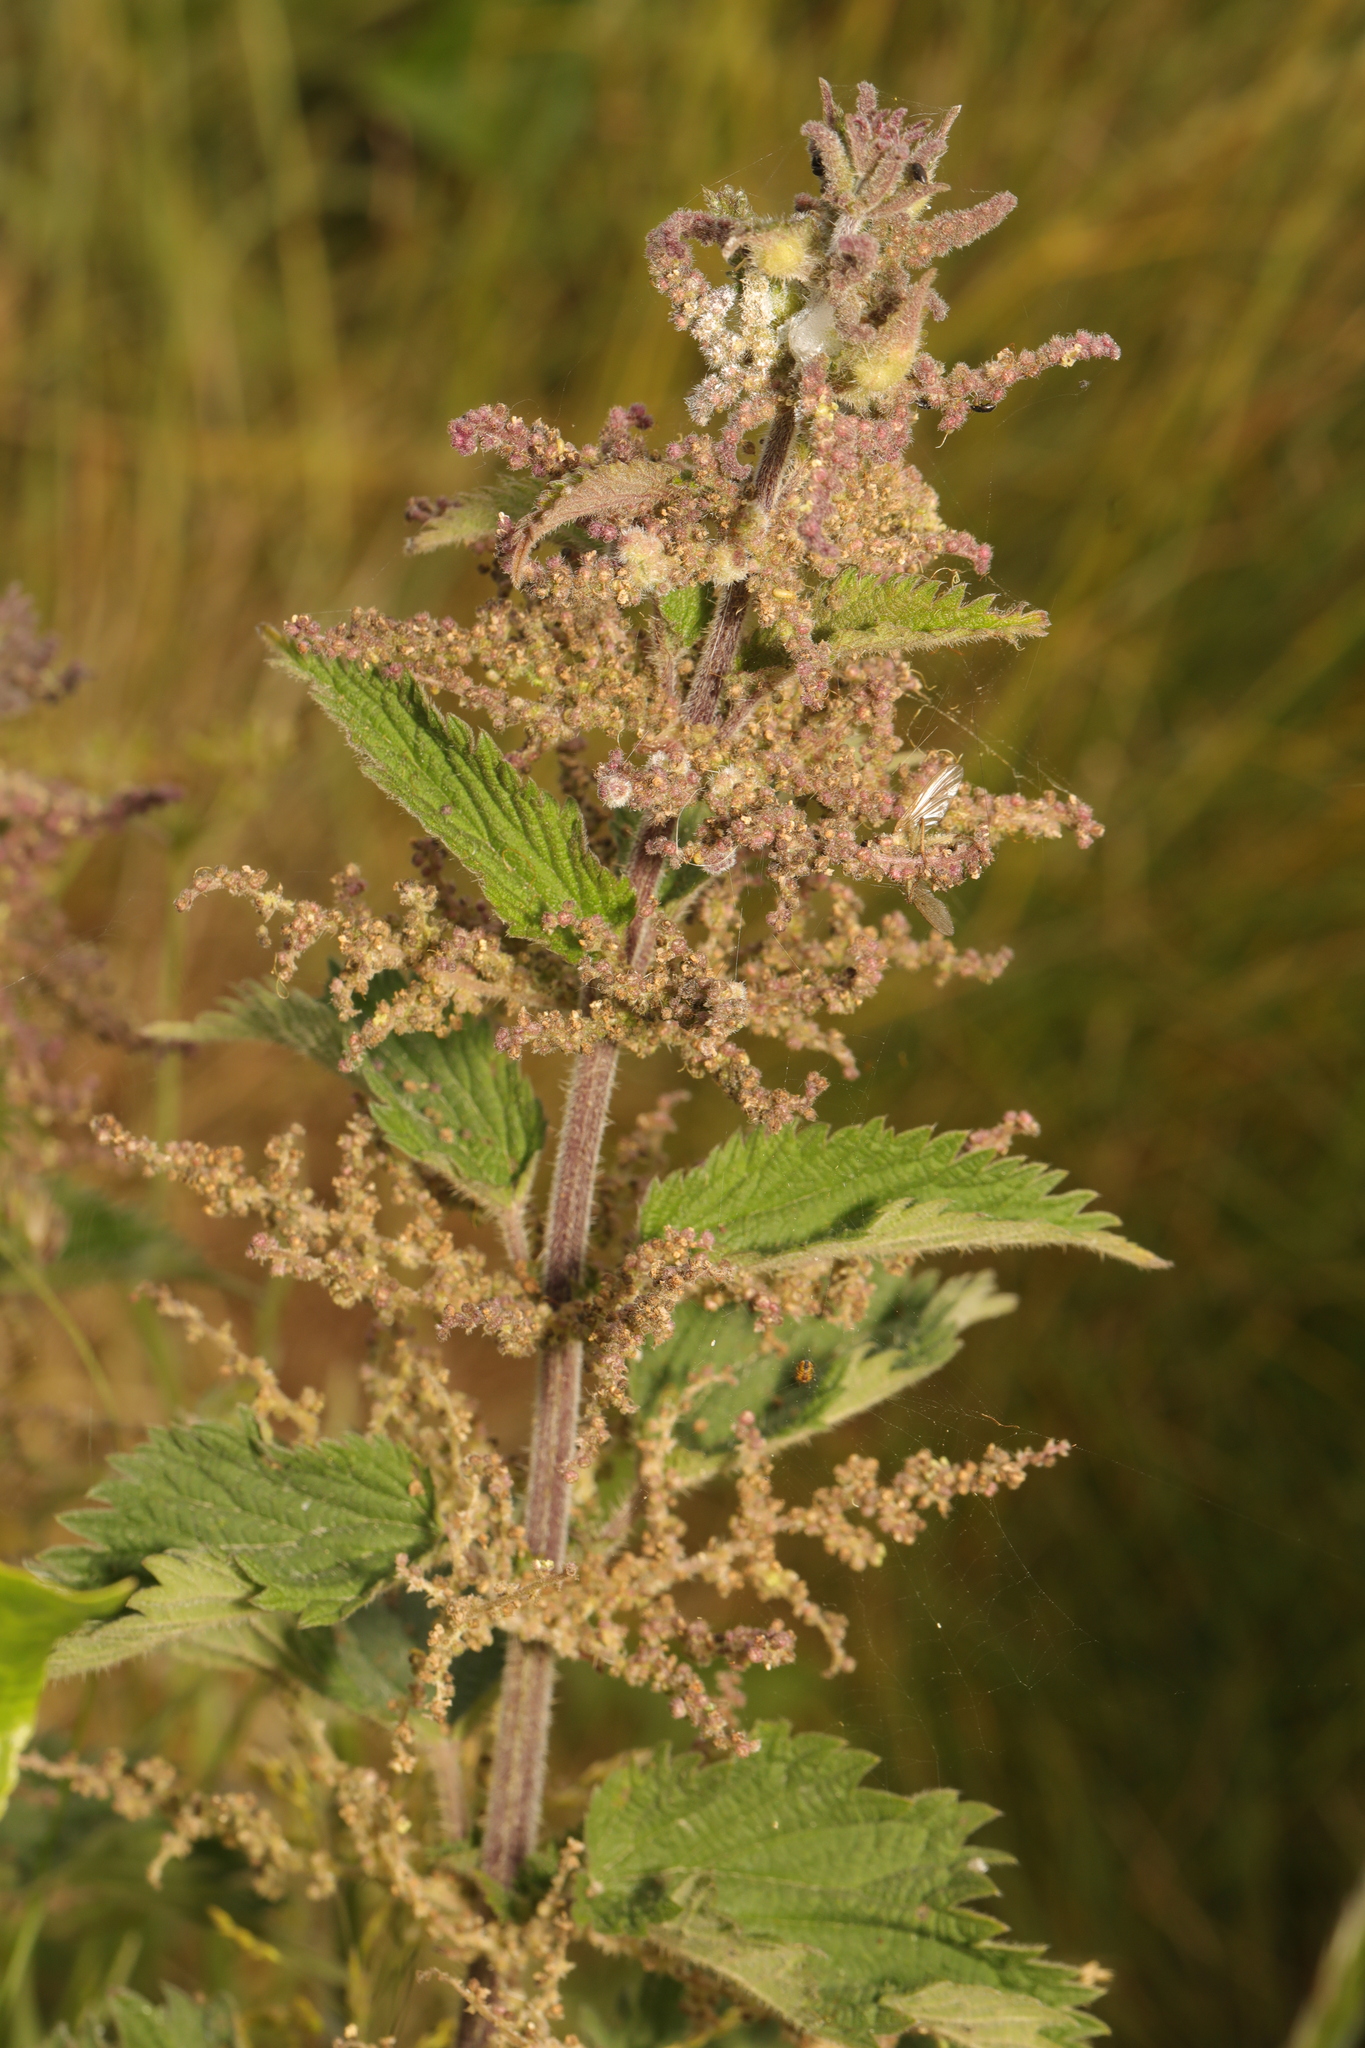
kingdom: Plantae
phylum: Tracheophyta
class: Magnoliopsida
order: Rosales
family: Urticaceae
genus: Urtica
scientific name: Urtica dioica
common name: Common nettle
